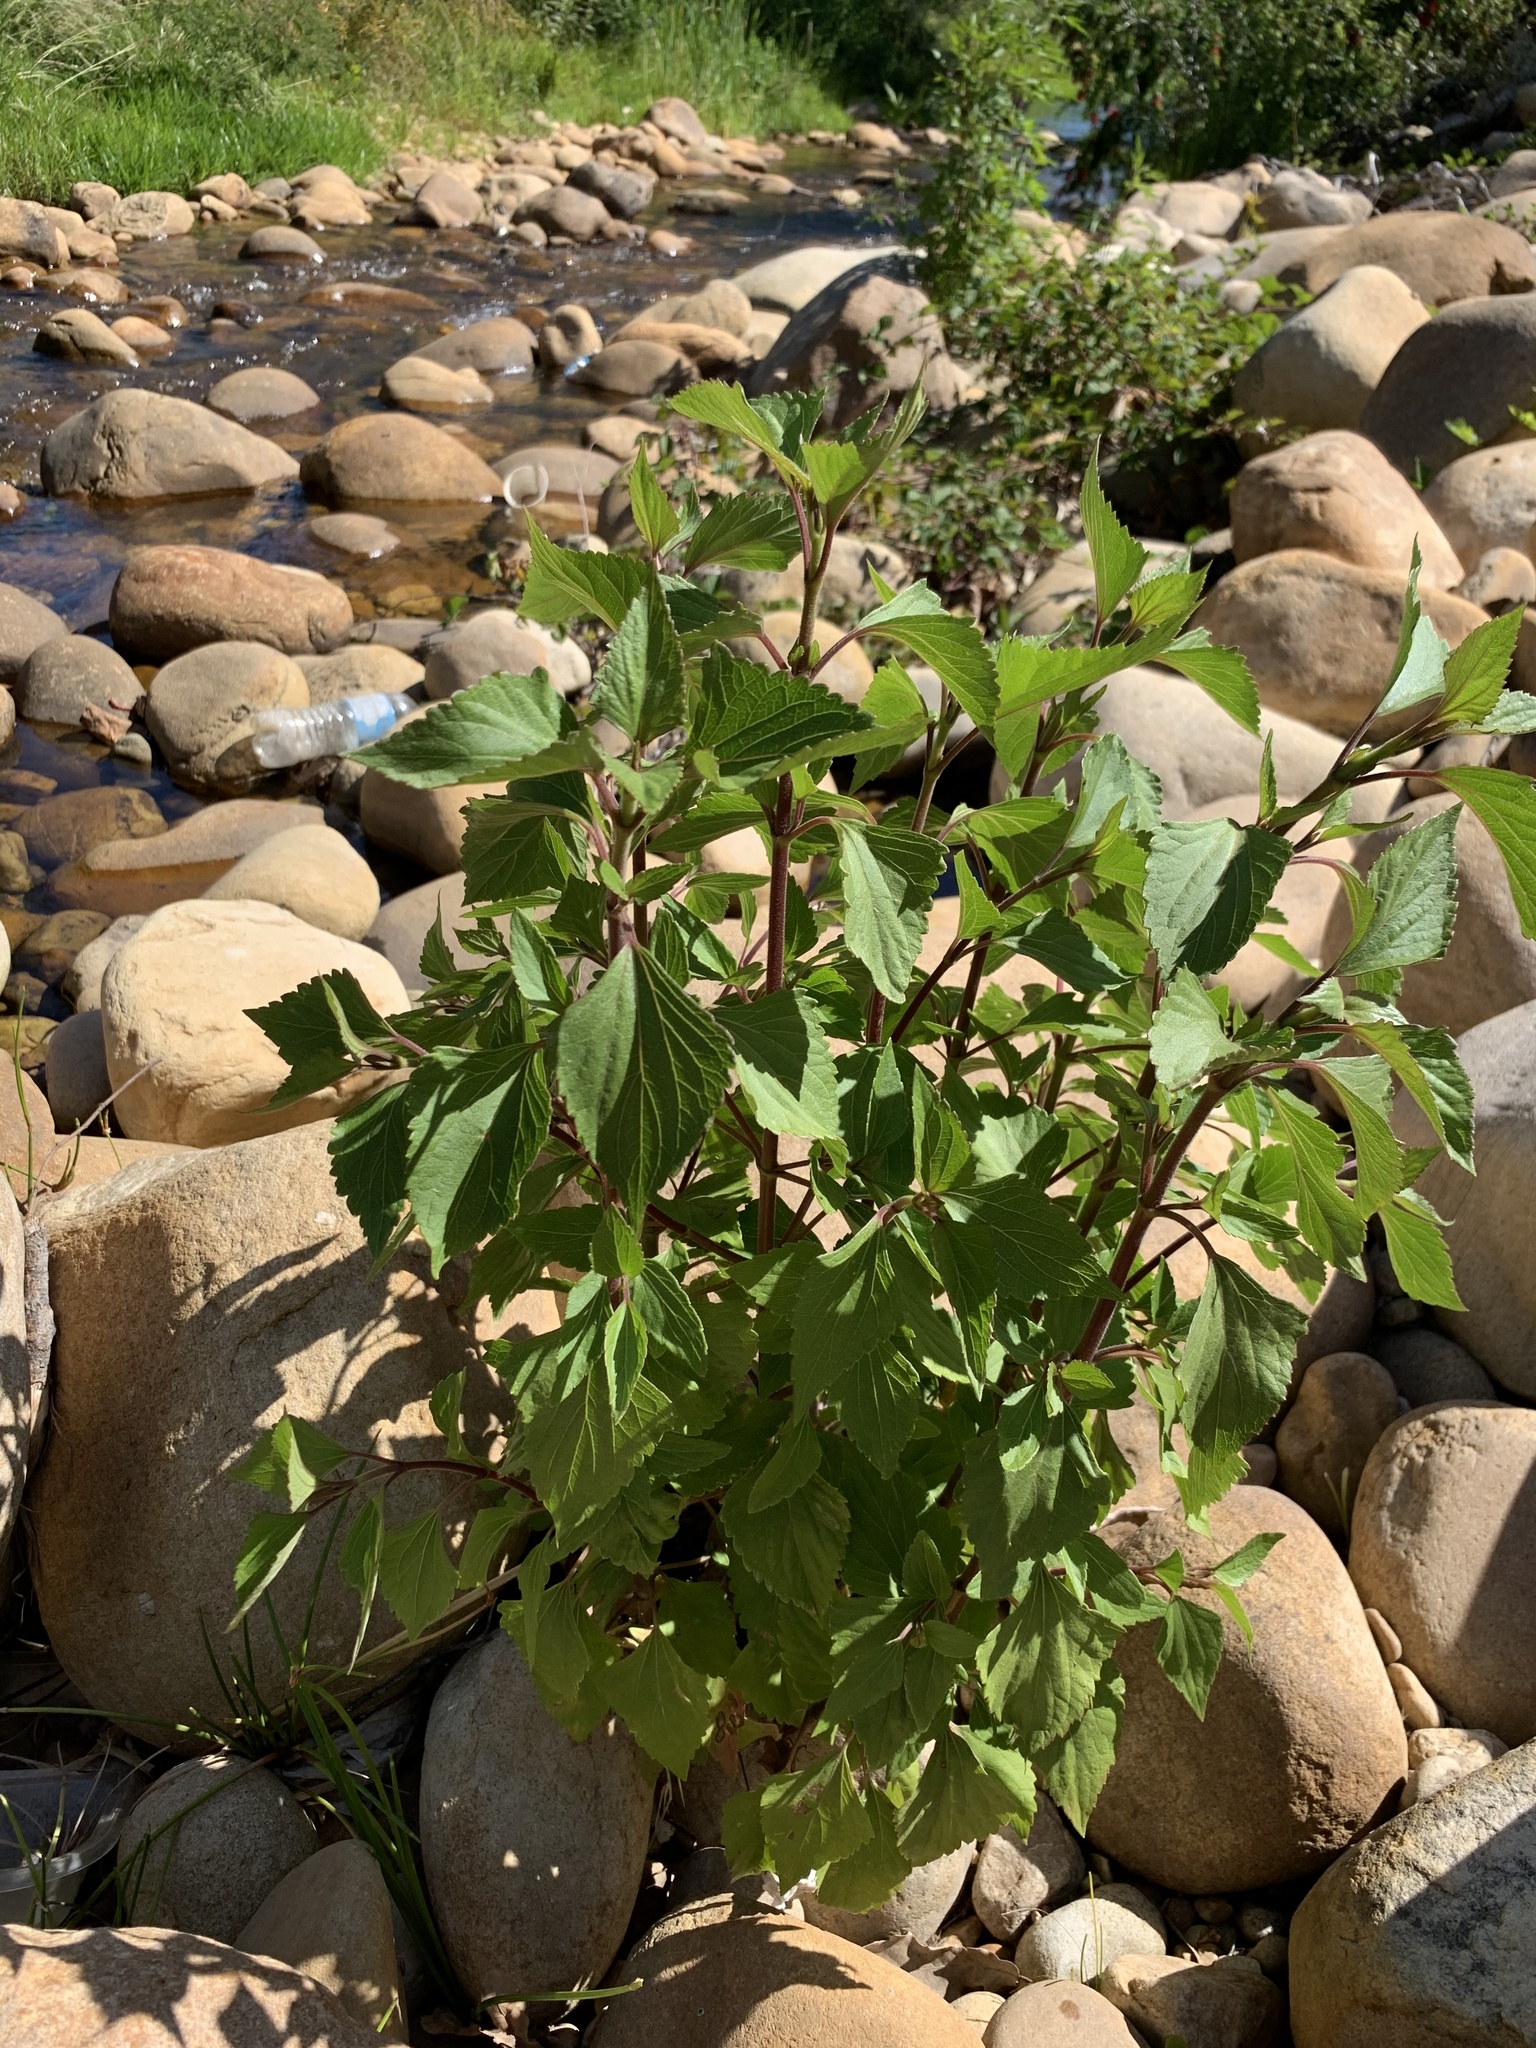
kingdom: Plantae
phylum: Tracheophyta
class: Magnoliopsida
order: Asterales
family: Asteraceae
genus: Ageratina
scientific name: Ageratina adenophora
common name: Sticky snakeroot
